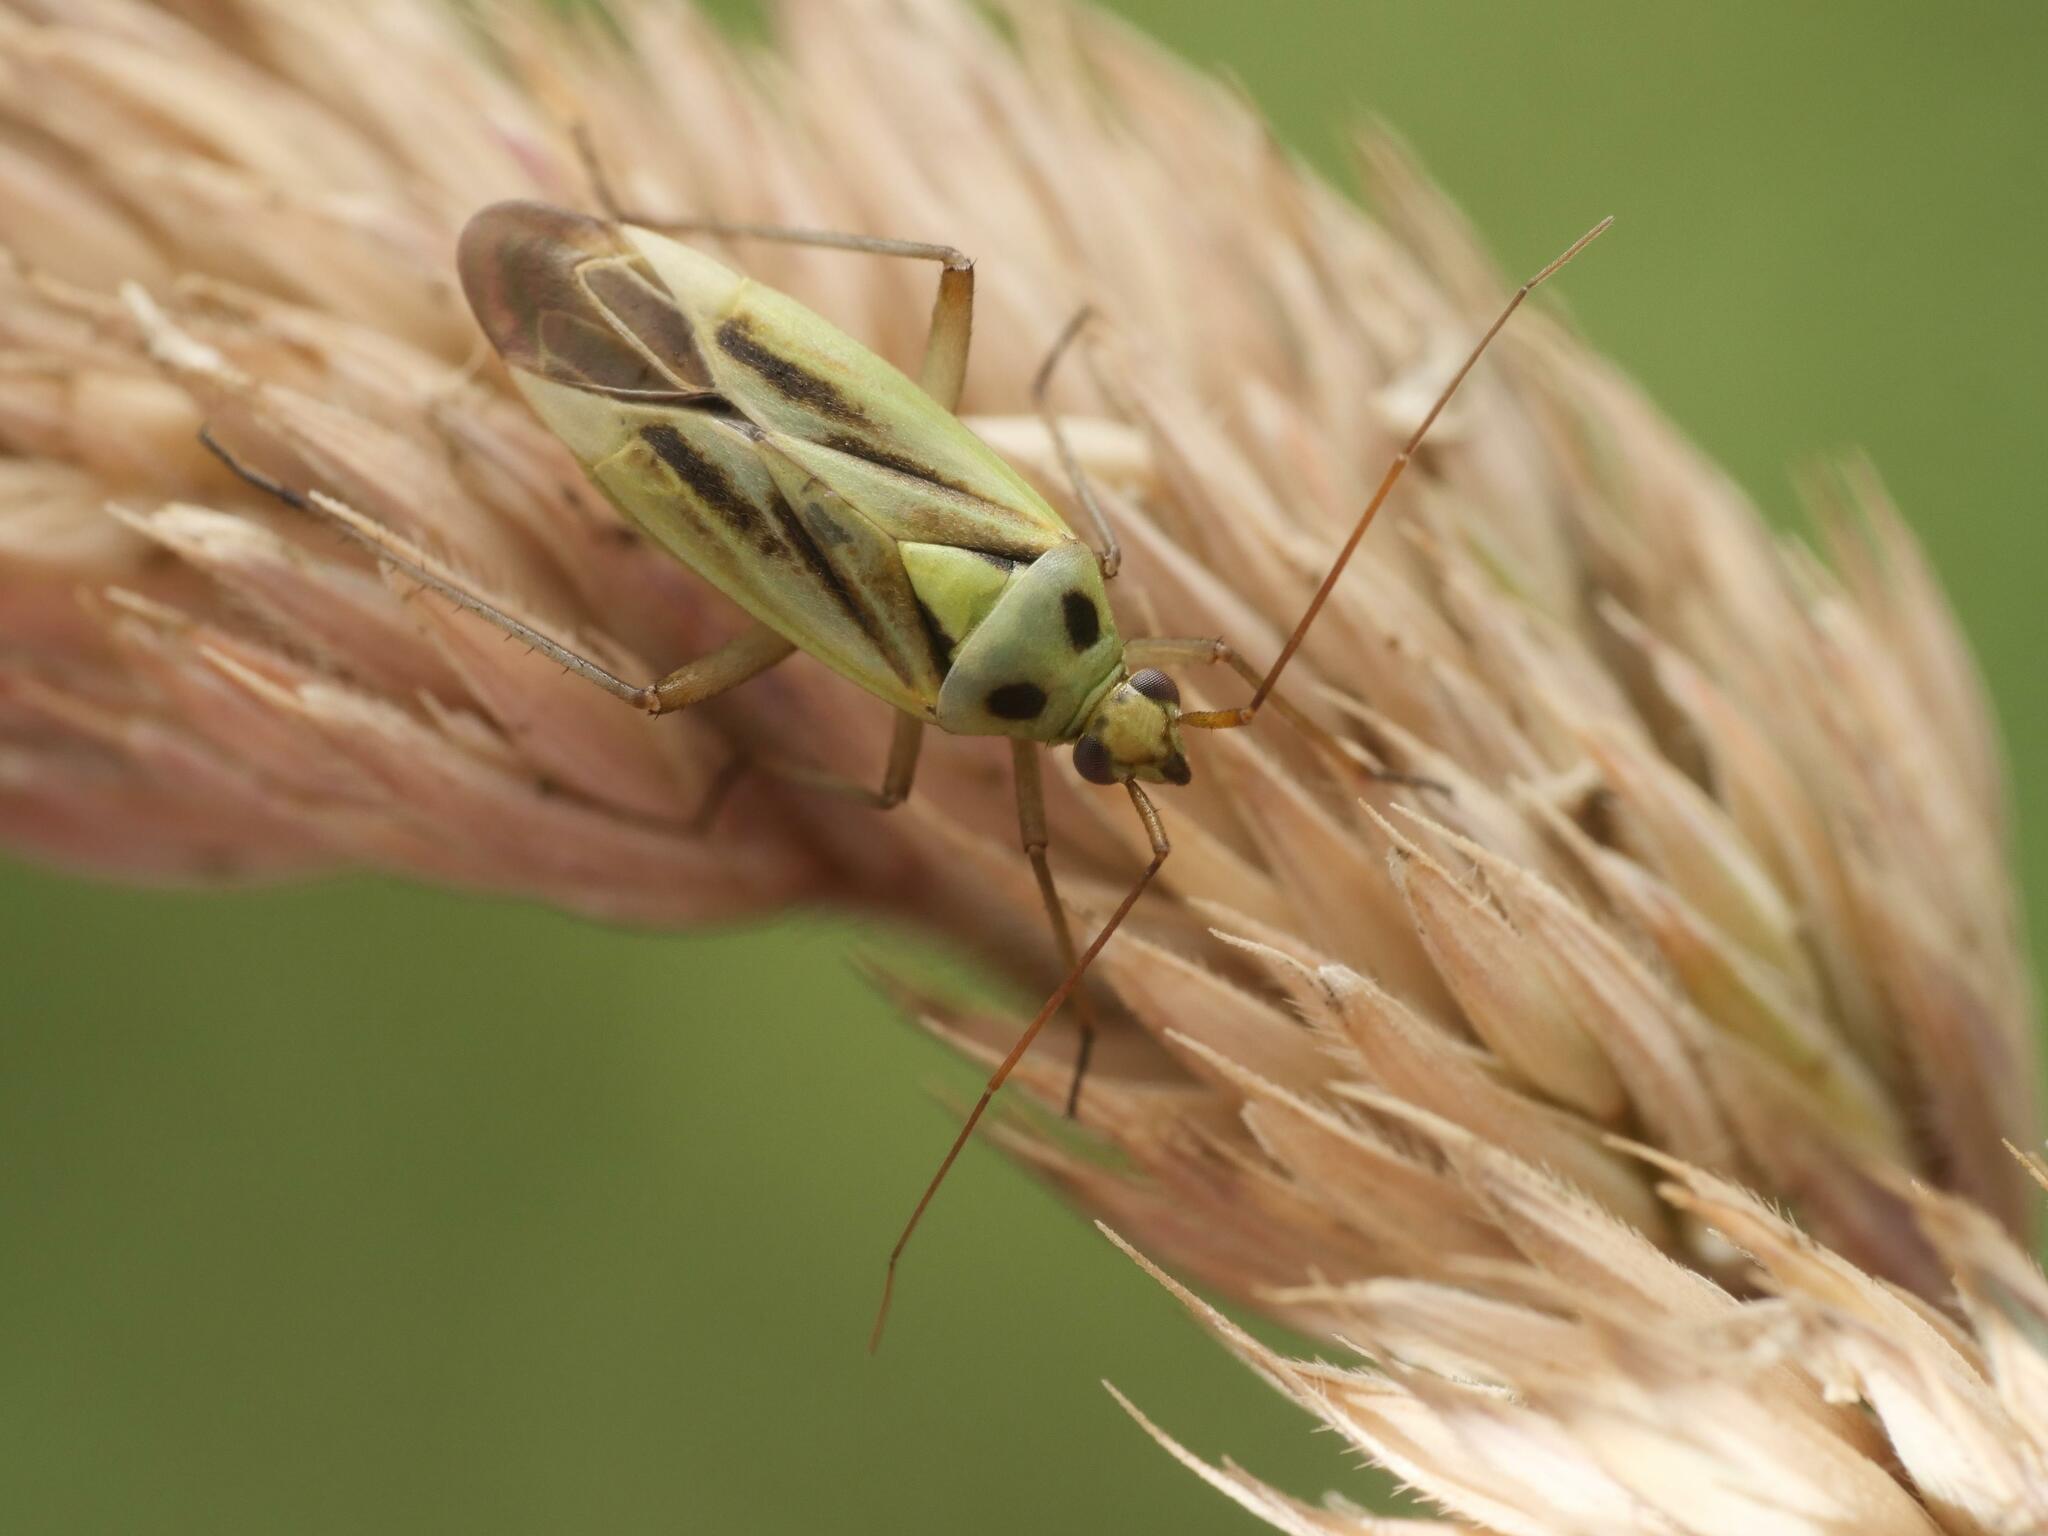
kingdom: Animalia
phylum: Arthropoda
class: Insecta
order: Hemiptera
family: Miridae
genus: Stenotus
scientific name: Stenotus binotatus
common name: Plant bug
